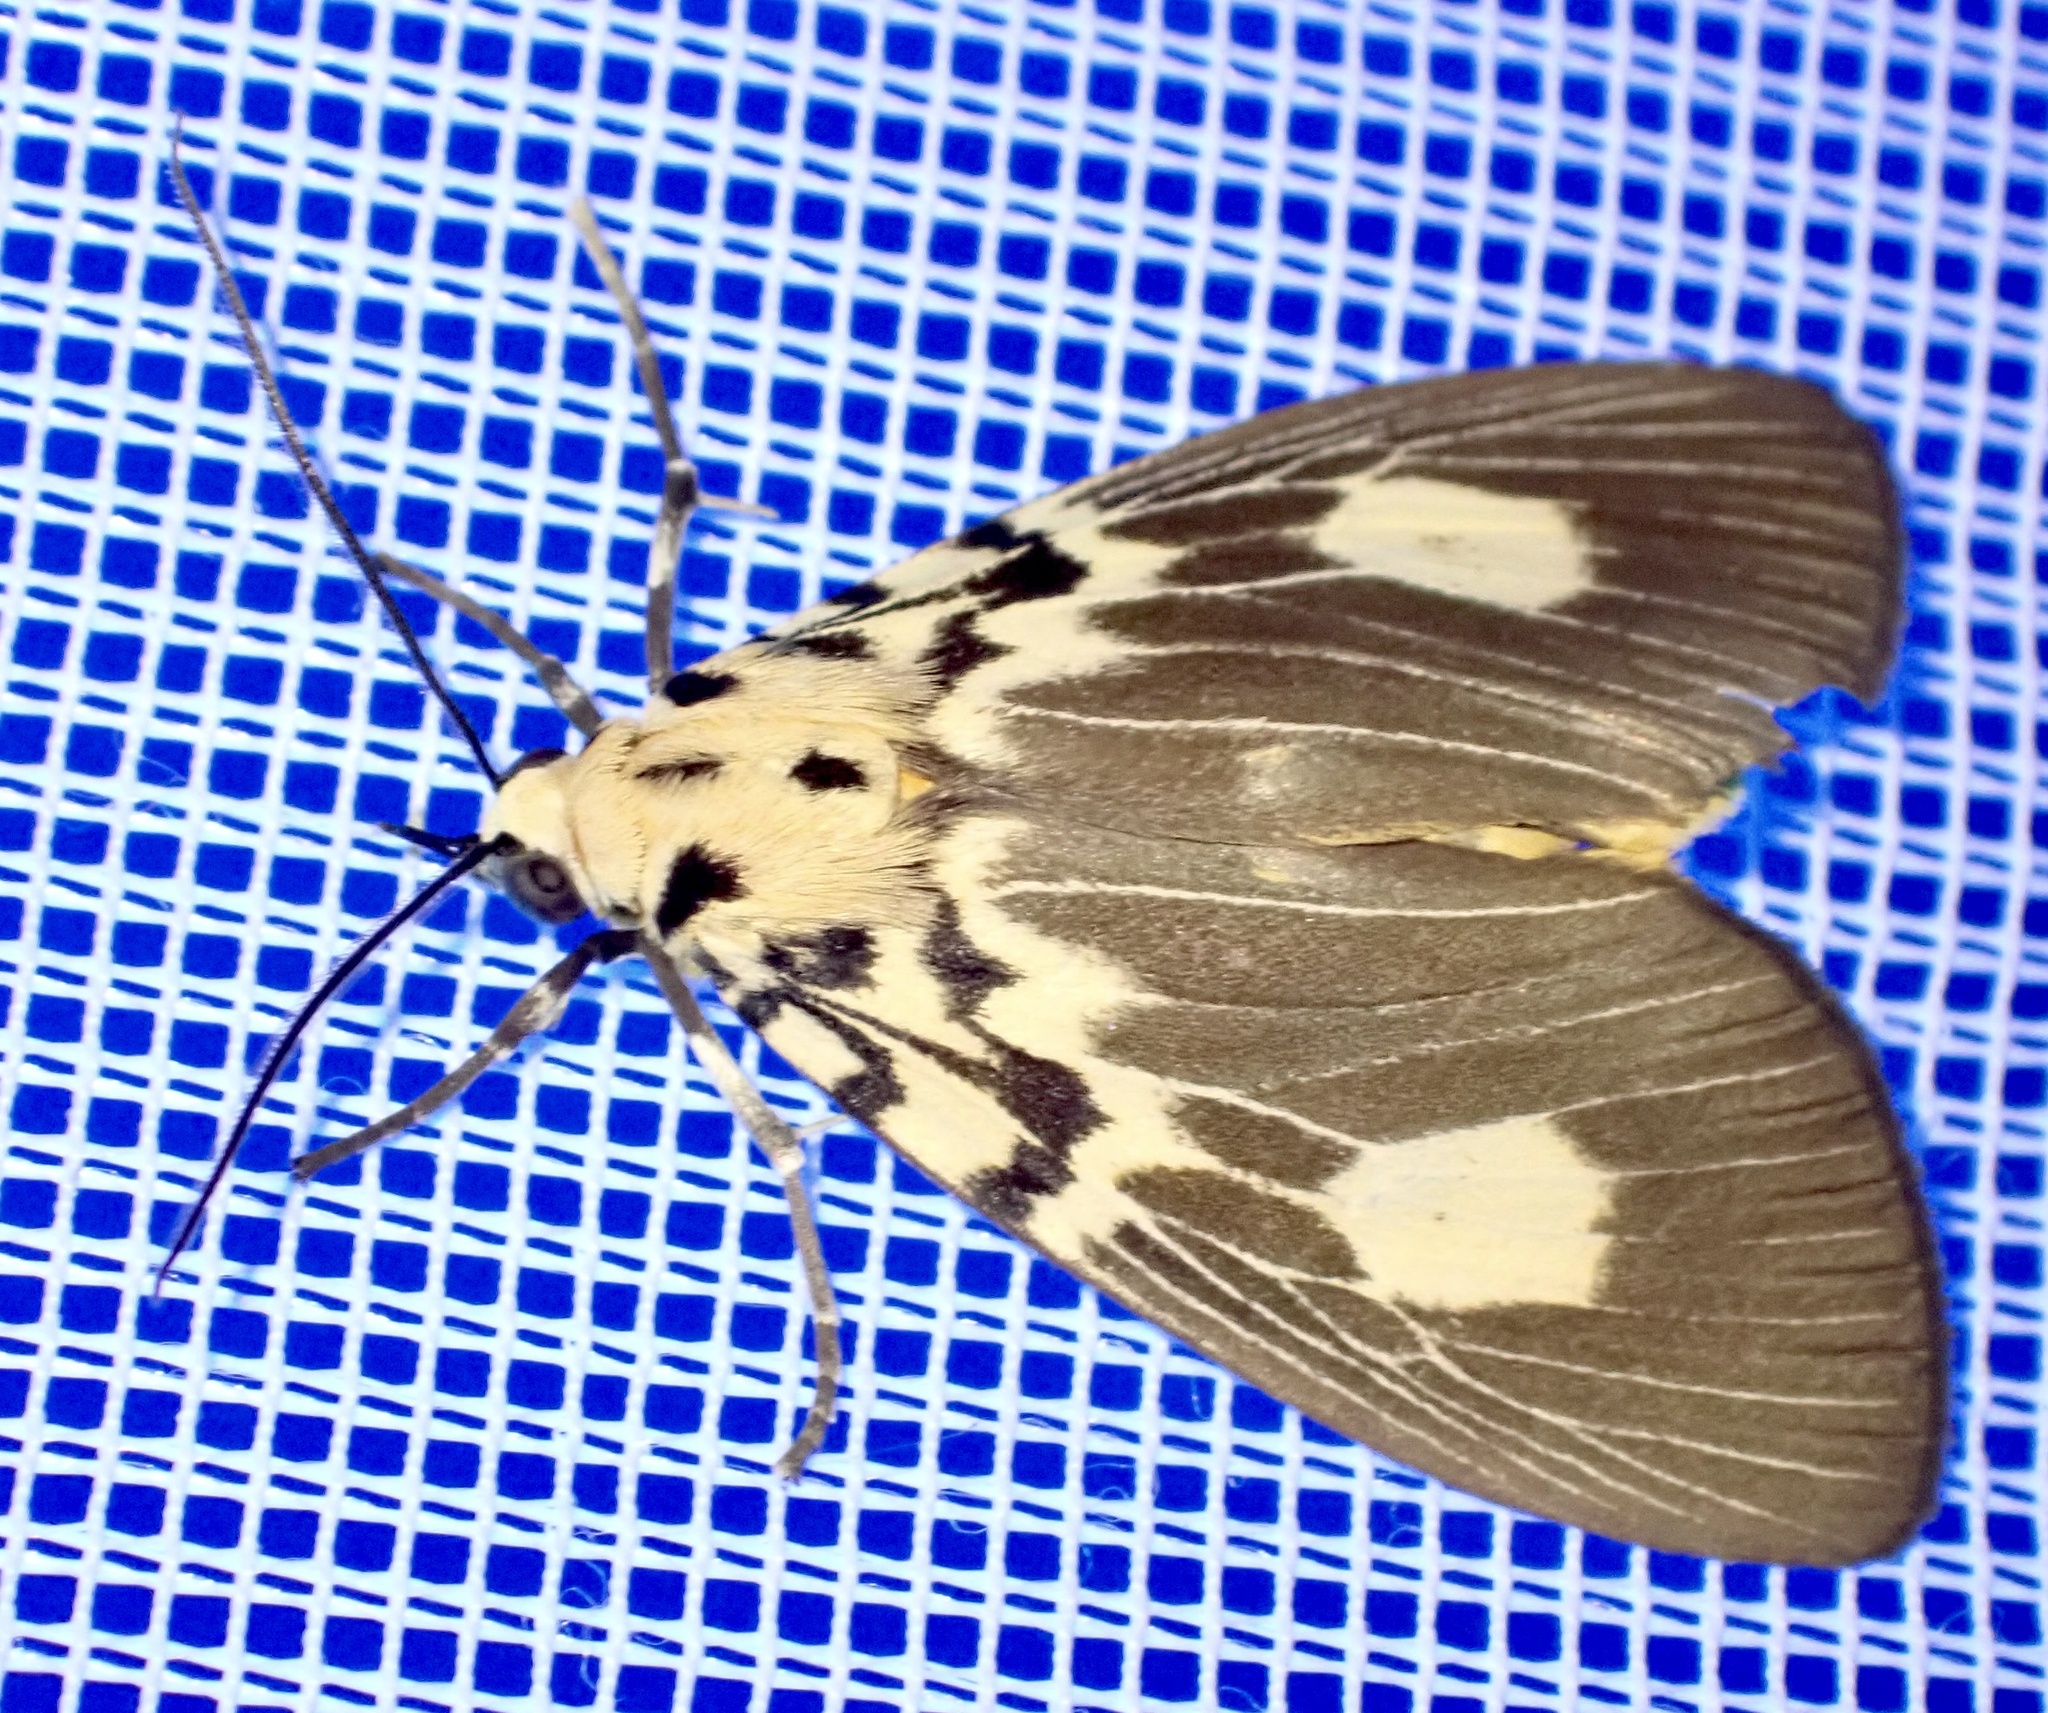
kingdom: Animalia
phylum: Arthropoda
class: Insecta
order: Lepidoptera
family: Erebidae
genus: Asota
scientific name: Asota plagiata
